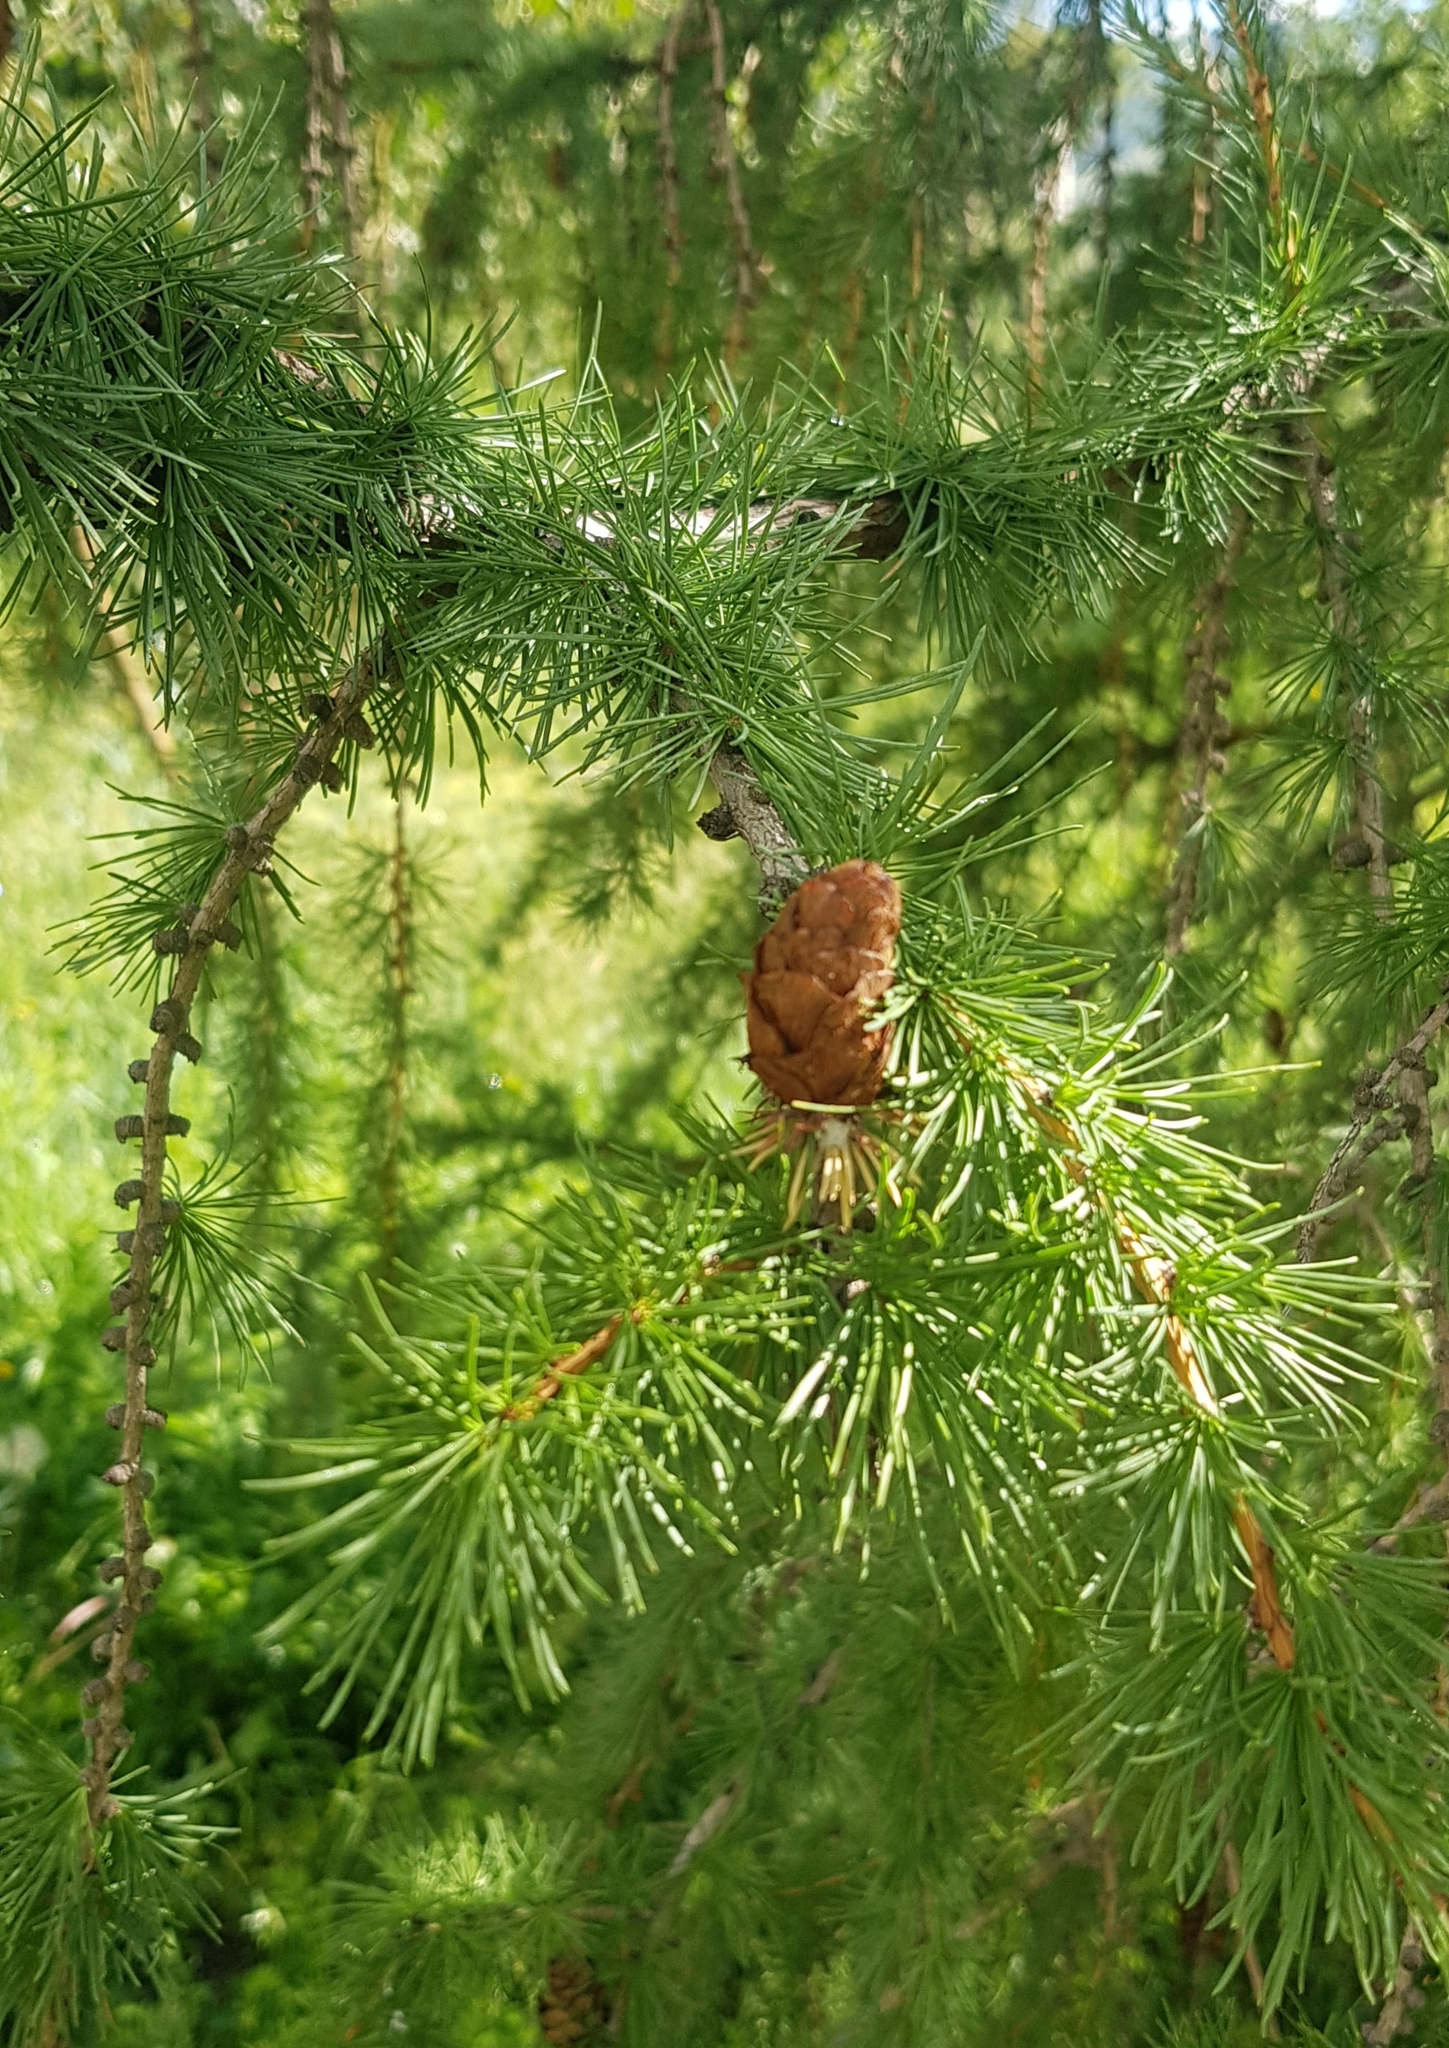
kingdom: Plantae
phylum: Tracheophyta
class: Pinopsida
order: Pinales
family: Pinaceae
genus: Larix
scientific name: Larix sibirica
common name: Siberian larch
